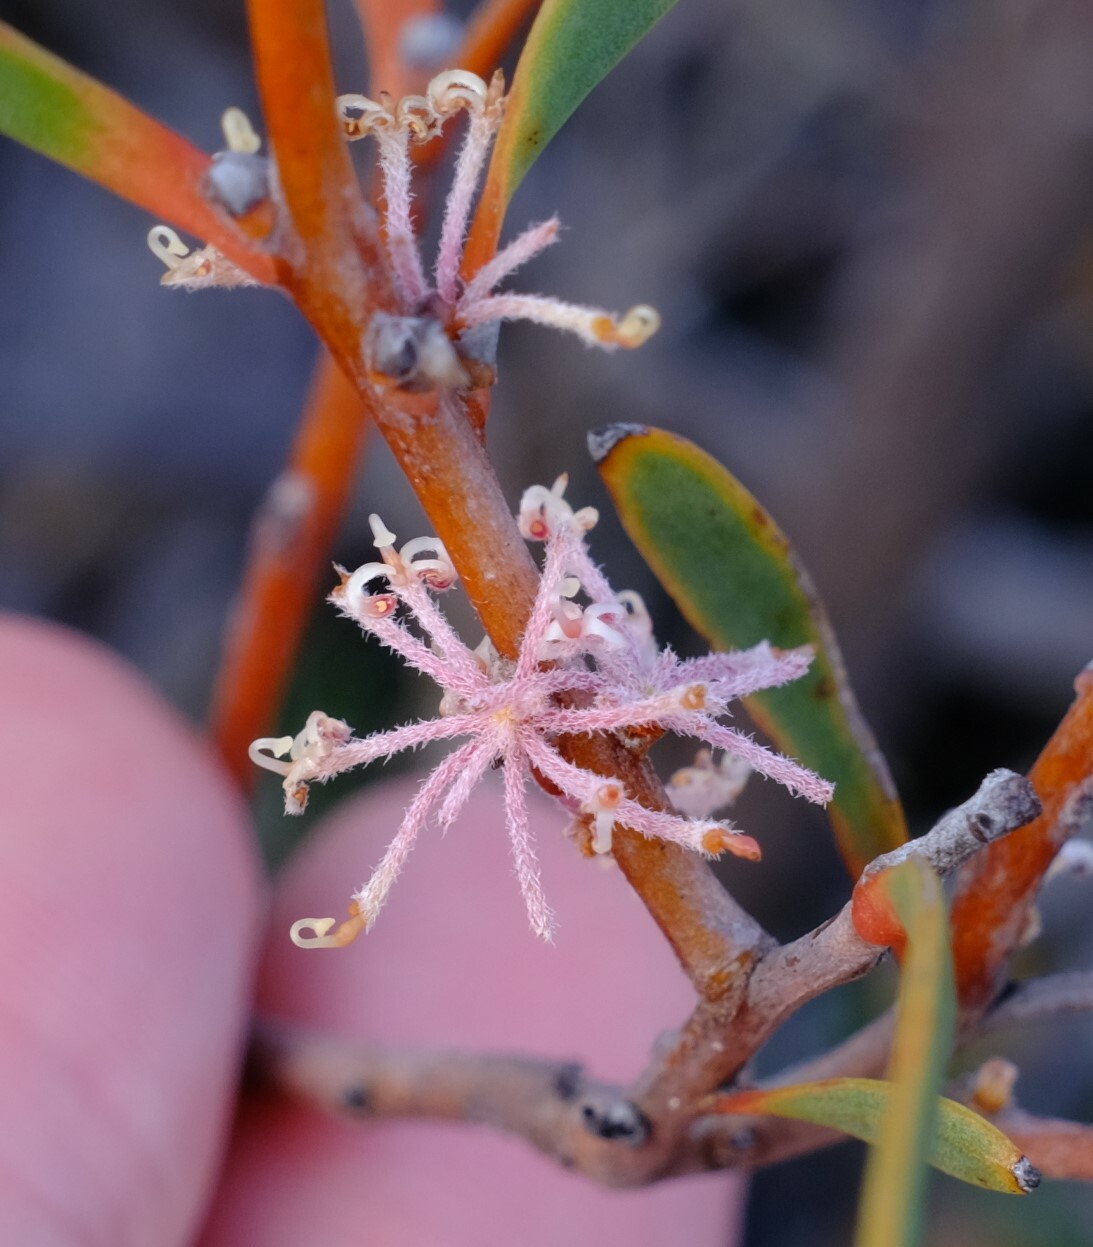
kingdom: Plantae
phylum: Tracheophyta
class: Magnoliopsida
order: Proteales
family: Proteaceae
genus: Hakea
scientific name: Hakea incrassata
